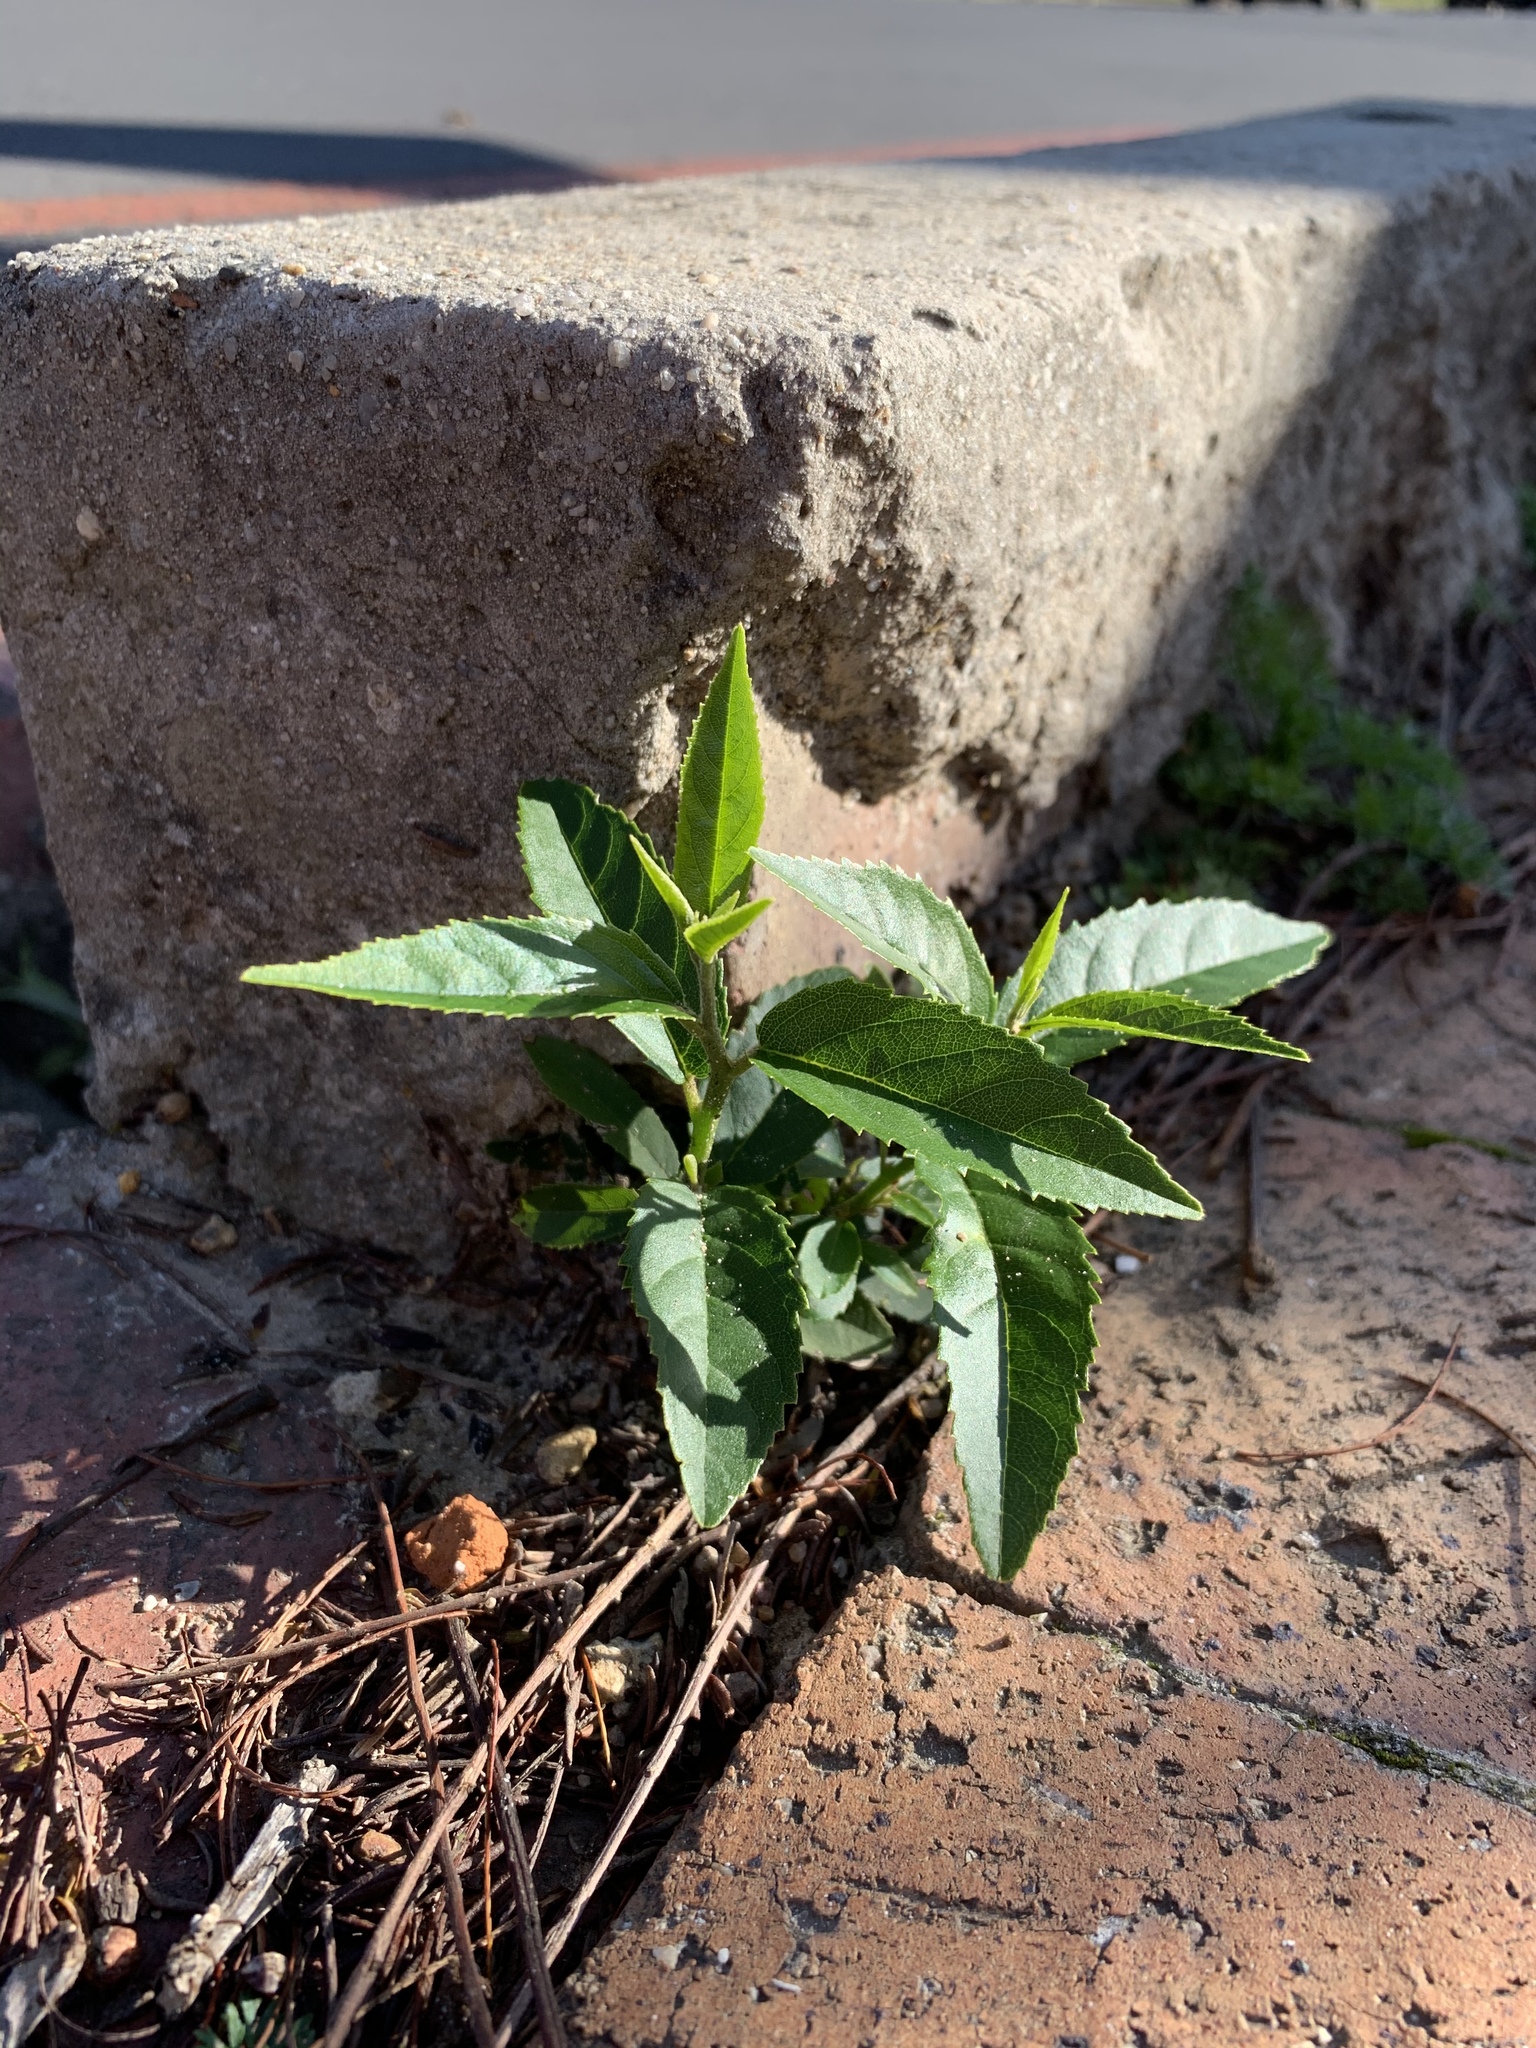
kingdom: Plantae
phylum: Tracheophyta
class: Magnoliopsida
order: Malpighiales
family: Achariaceae
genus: Kiggelaria
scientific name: Kiggelaria africana
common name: Wild peach
